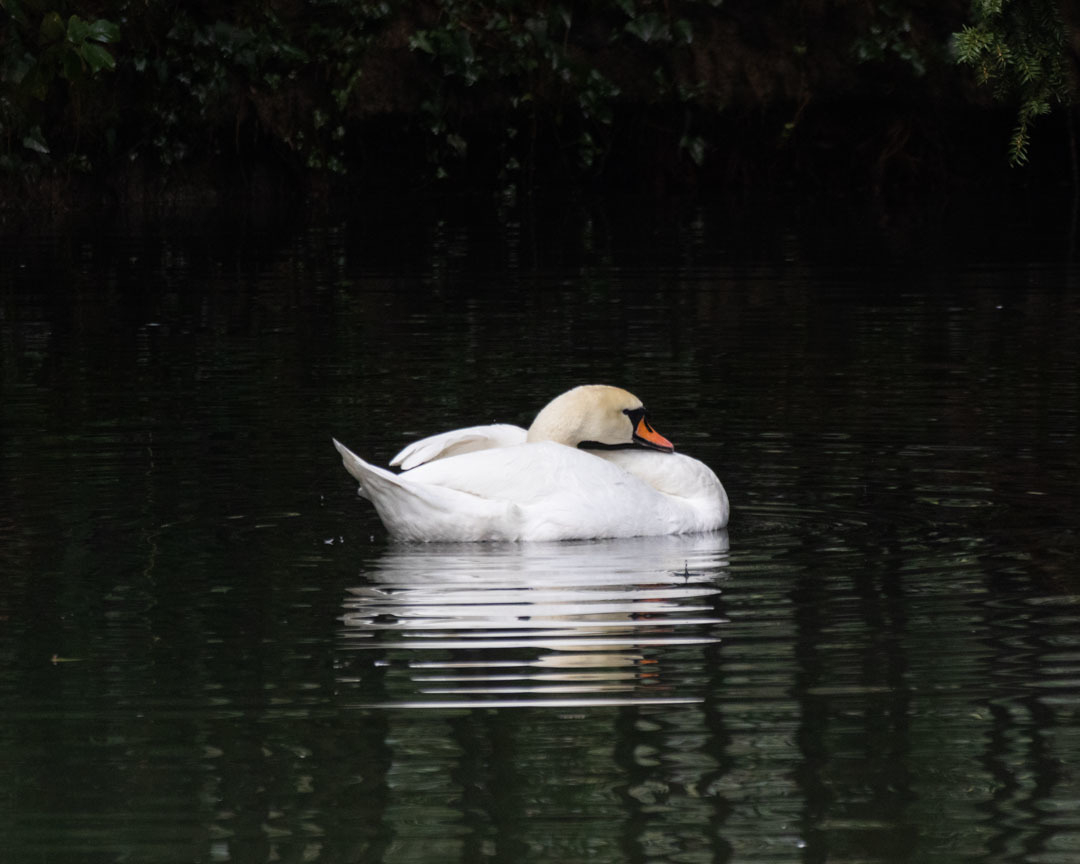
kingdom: Animalia
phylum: Chordata
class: Aves
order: Anseriformes
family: Anatidae
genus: Cygnus
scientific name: Cygnus olor
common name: Mute swan
